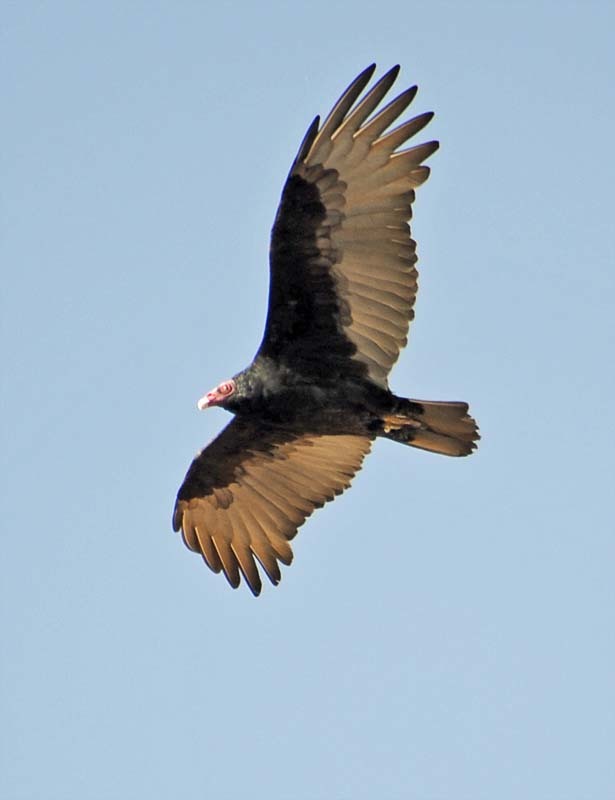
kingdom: Animalia
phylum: Chordata
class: Aves
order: Accipitriformes
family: Cathartidae
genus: Cathartes
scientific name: Cathartes aura
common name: Turkey vulture
